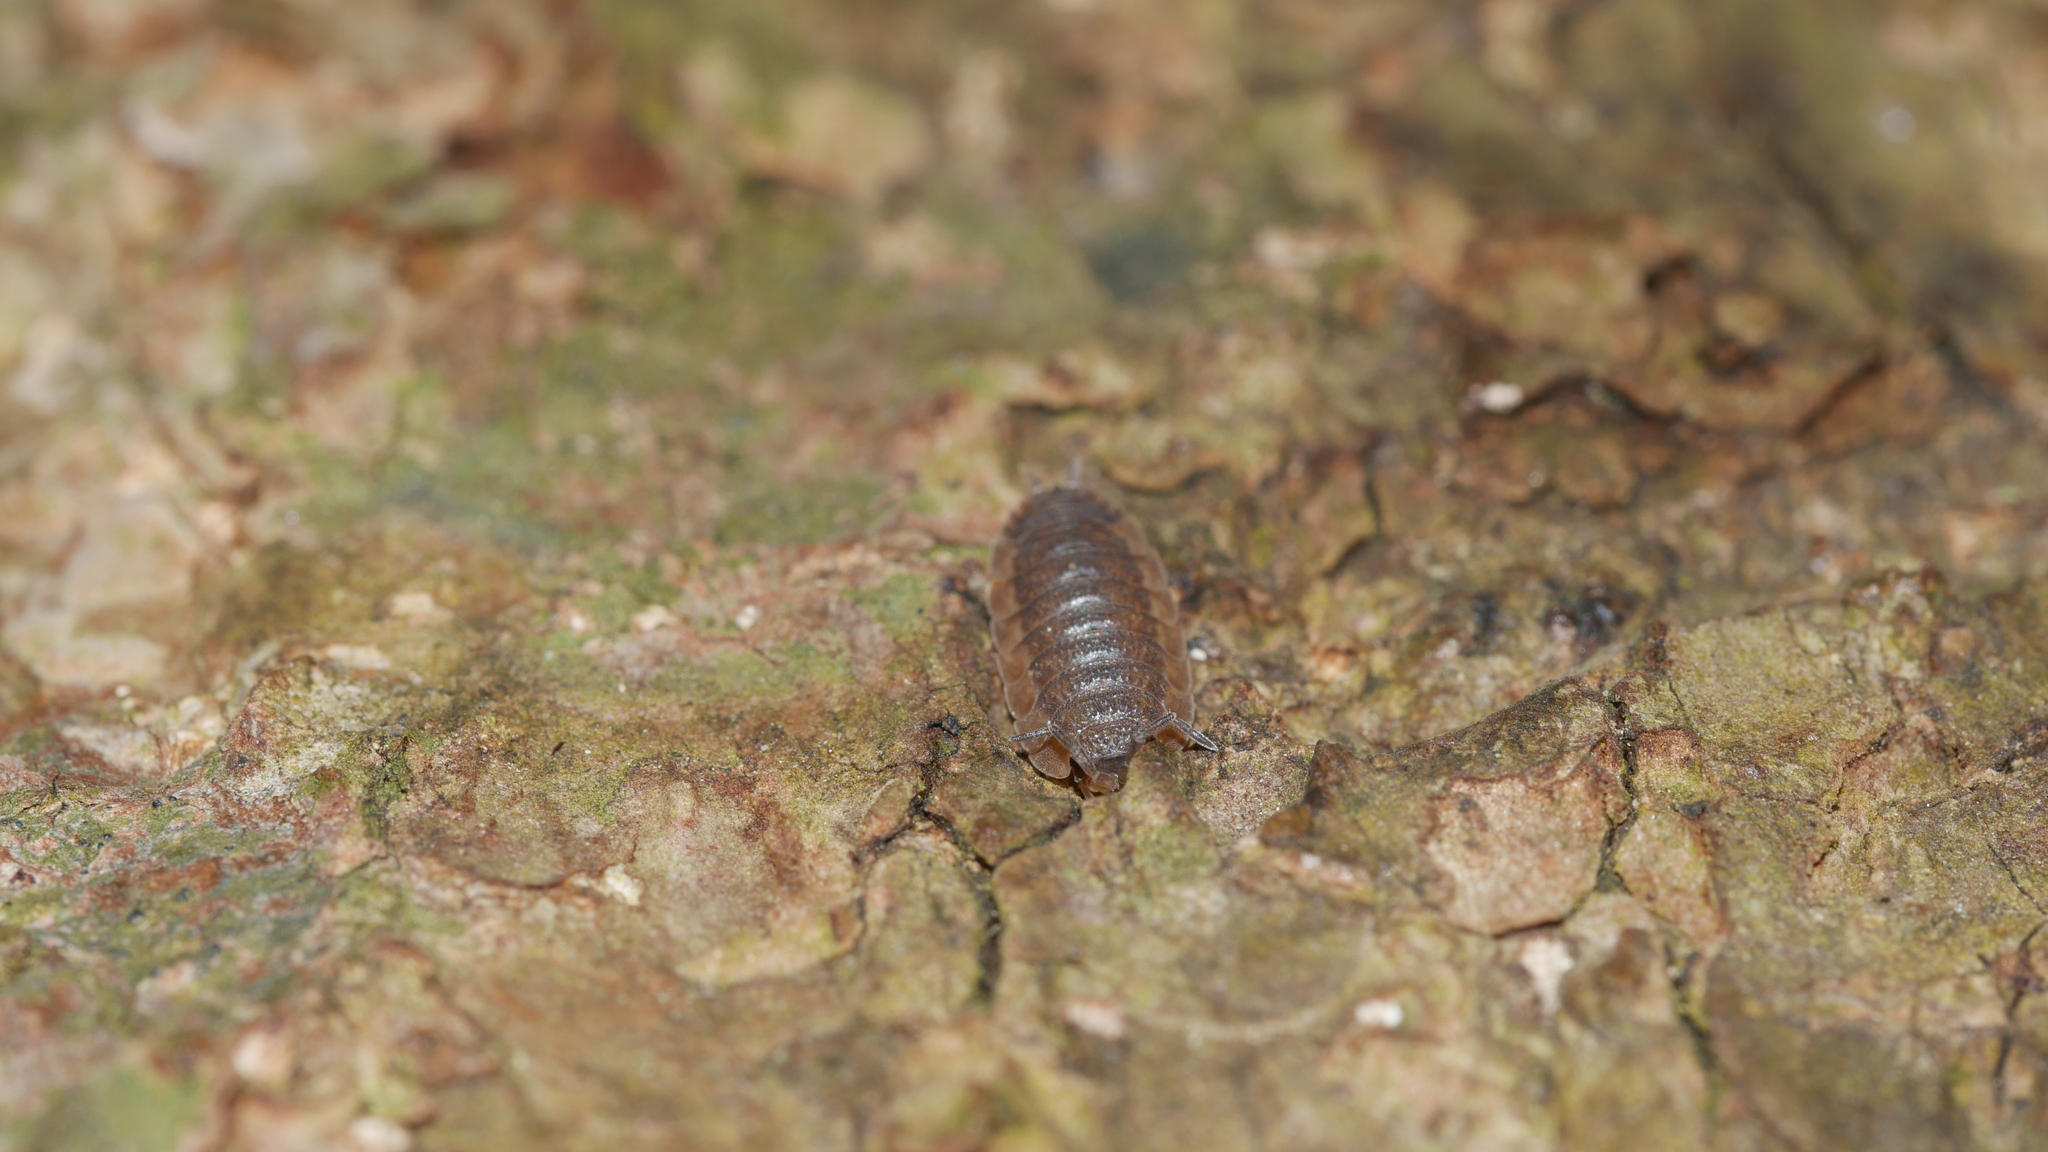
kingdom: Animalia
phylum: Arthropoda
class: Malacostraca
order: Isopoda
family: Porcellionidae
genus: Porcellio
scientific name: Porcellio scaber
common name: Common rough woodlouse
